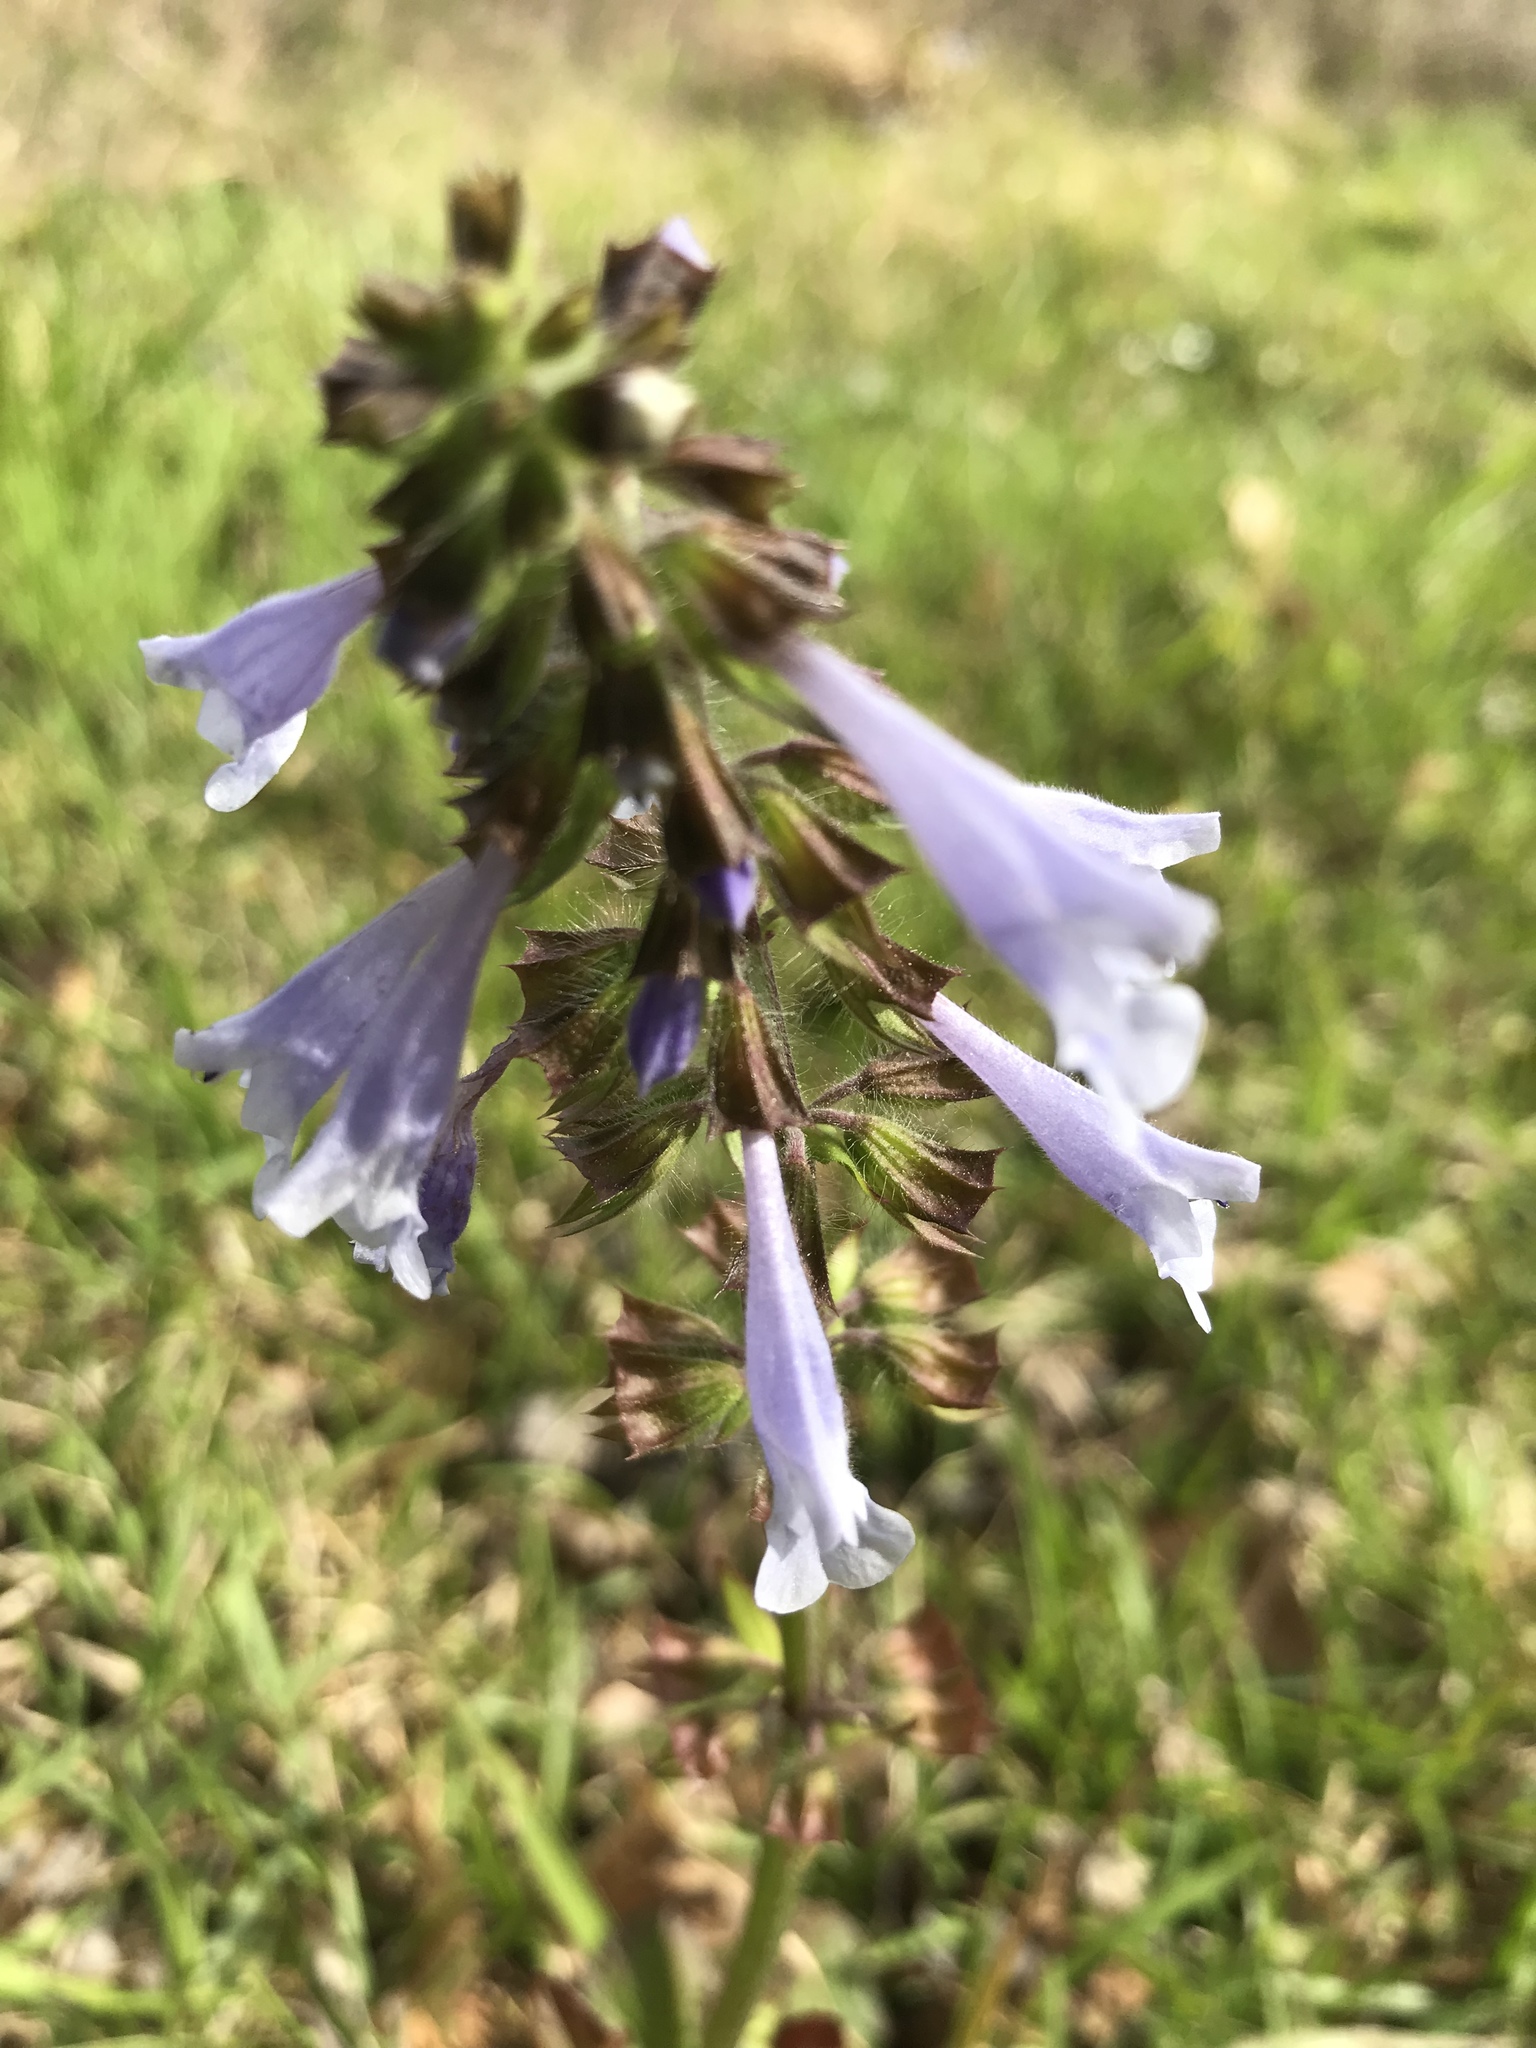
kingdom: Plantae
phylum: Tracheophyta
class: Magnoliopsida
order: Lamiales
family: Lamiaceae
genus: Salvia
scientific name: Salvia lyrata
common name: Cancerweed
